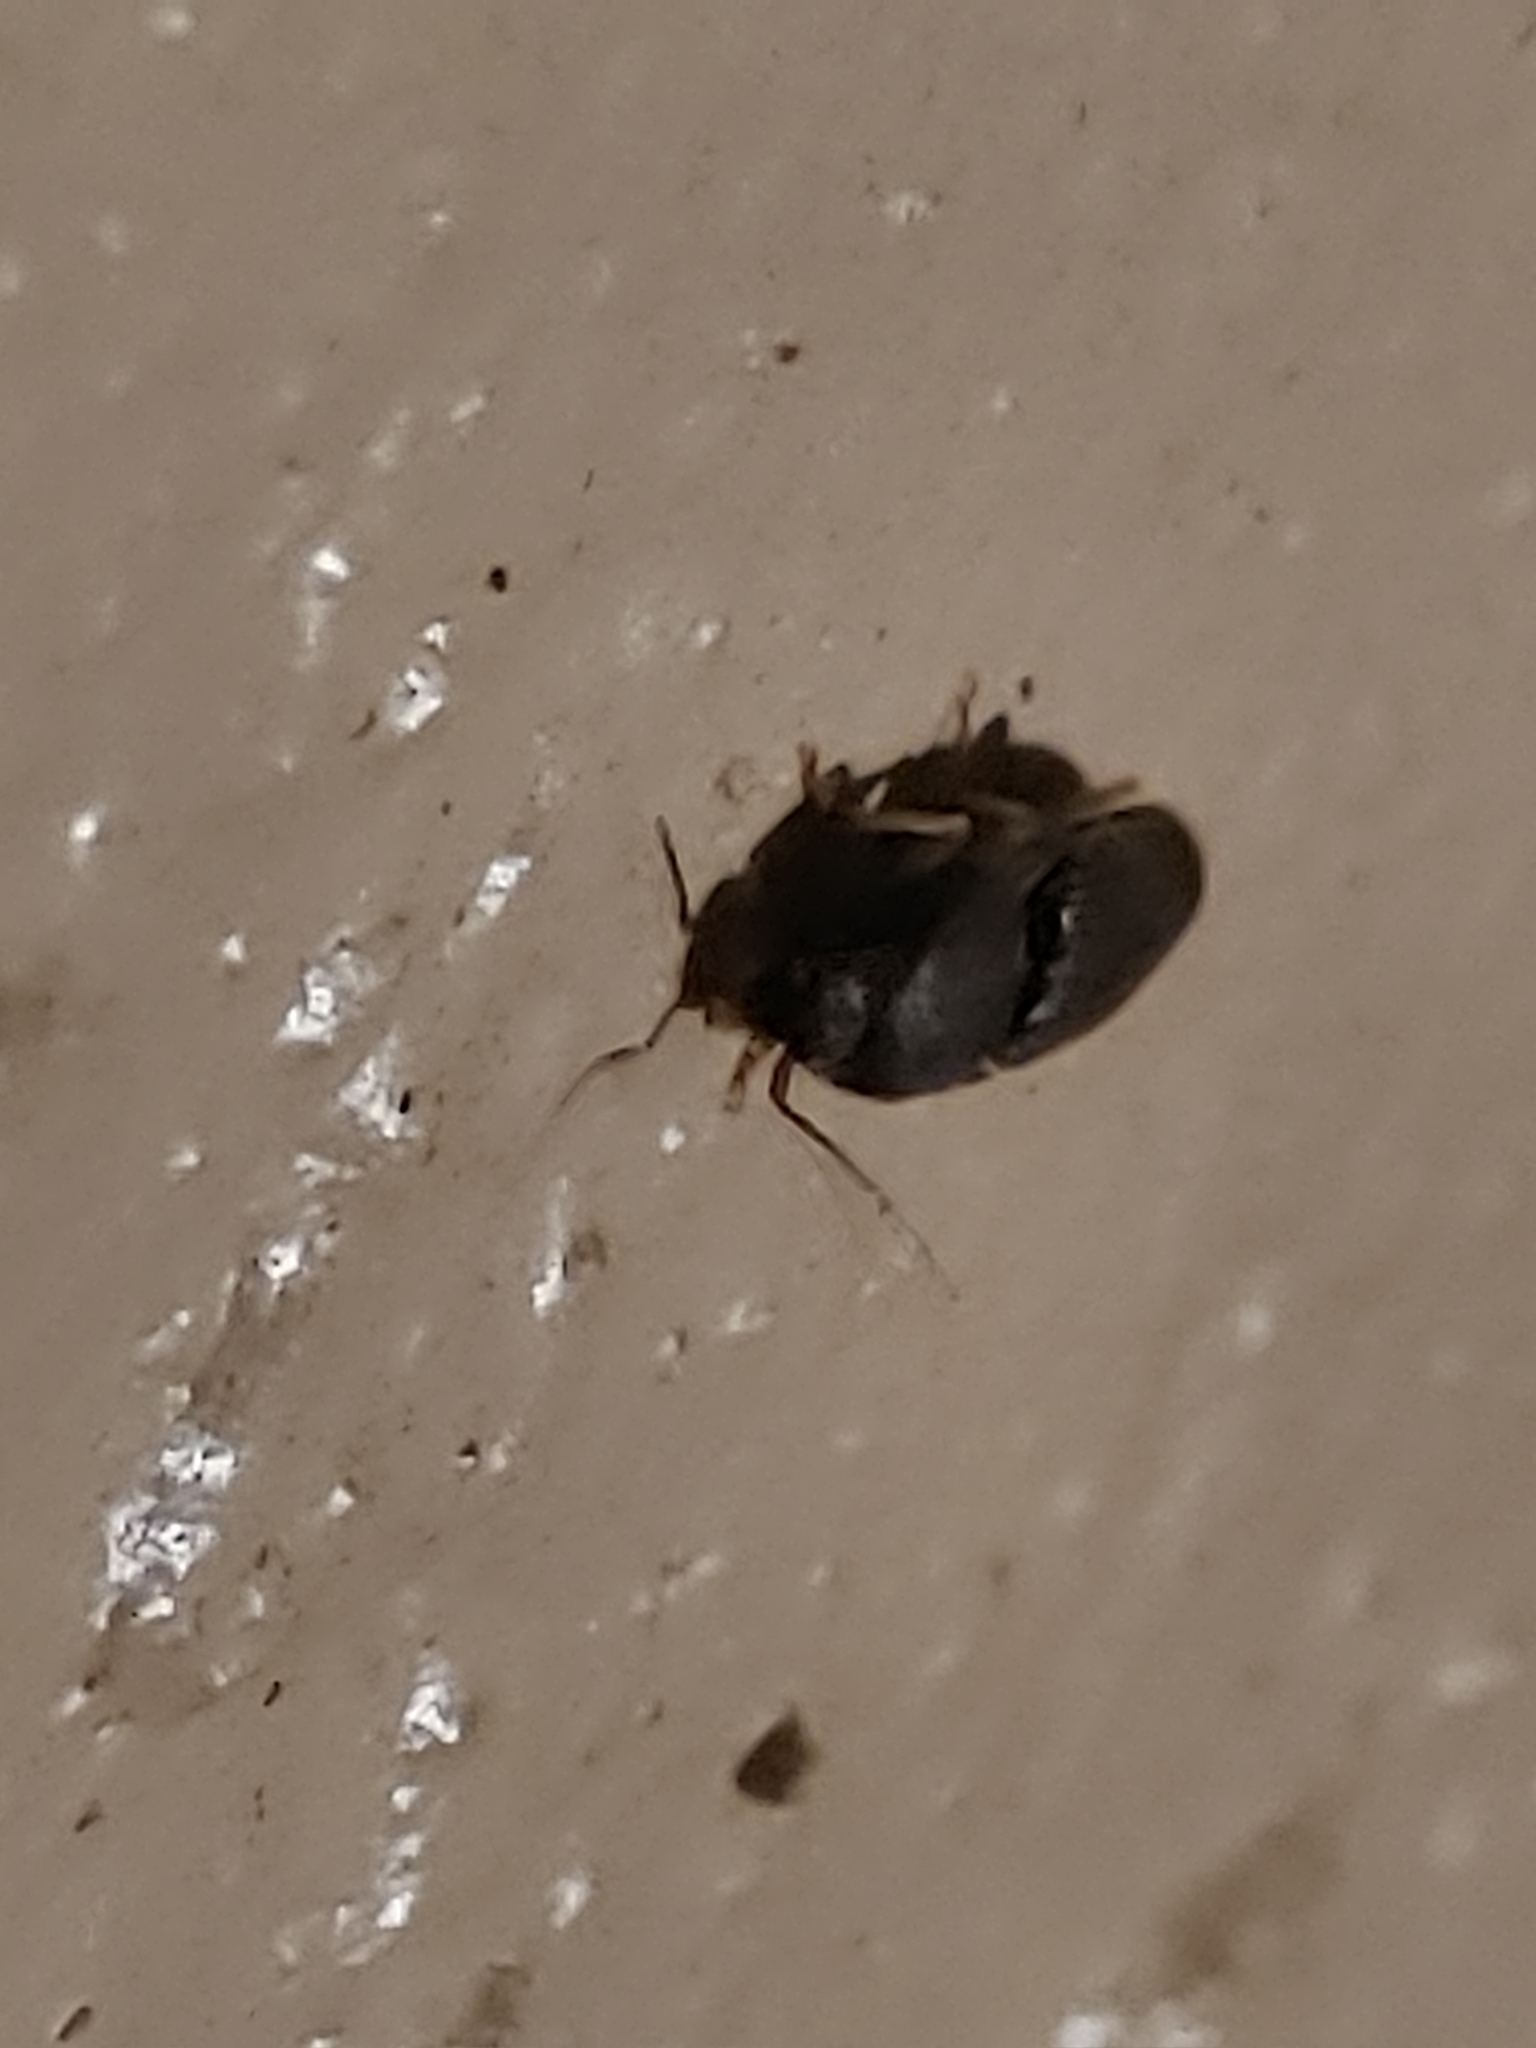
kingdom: Animalia
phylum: Arthropoda
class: Insecta
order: Coleoptera
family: Elateridae
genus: Heteroderes
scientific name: Heteroderes amplicollis
